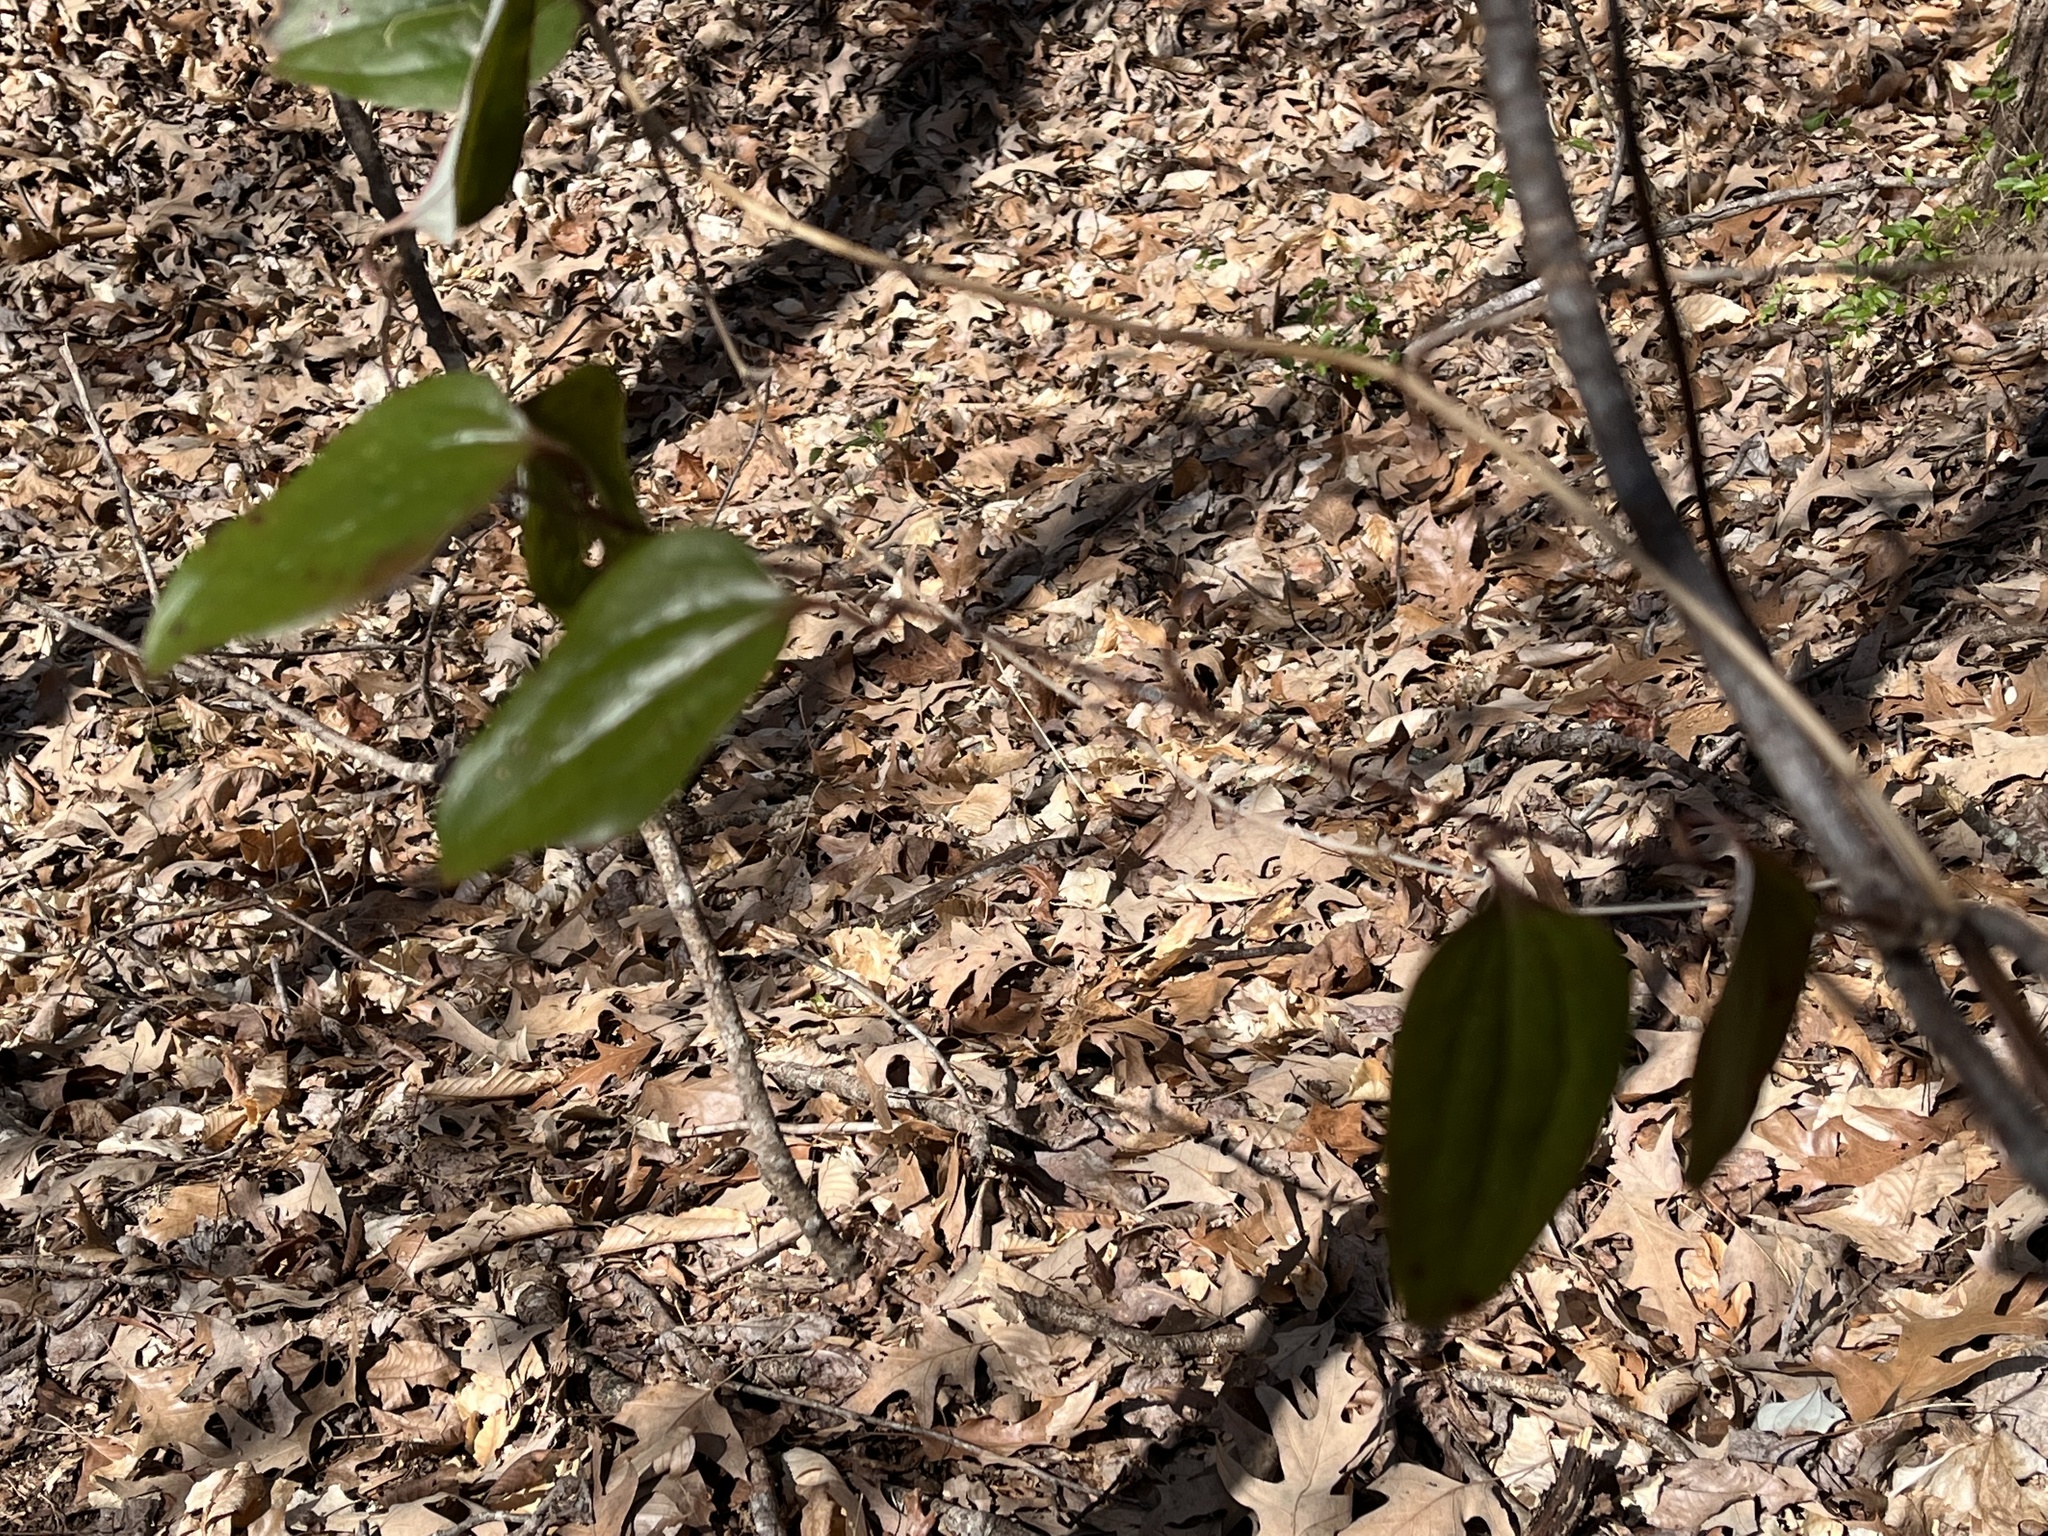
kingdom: Plantae
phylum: Tracheophyta
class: Liliopsida
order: Liliales
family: Smilacaceae
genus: Smilax
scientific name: Smilax glauca
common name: Cat greenbrier
